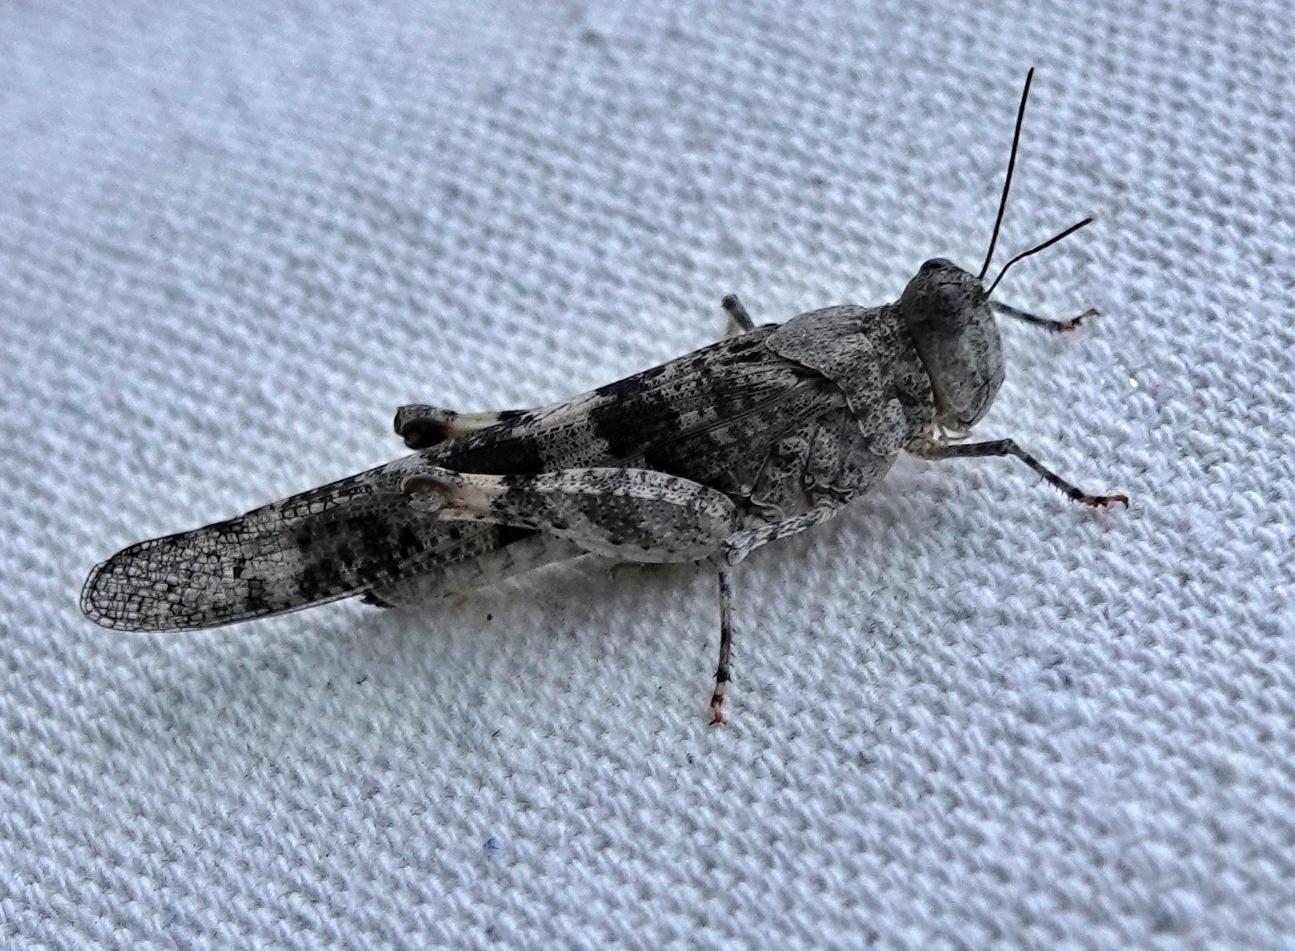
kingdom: Animalia
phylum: Arthropoda
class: Insecta
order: Orthoptera
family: Acrididae
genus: Trimerotropis
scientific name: Trimerotropis pallidipennis
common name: Pallid-winged grasshopper
